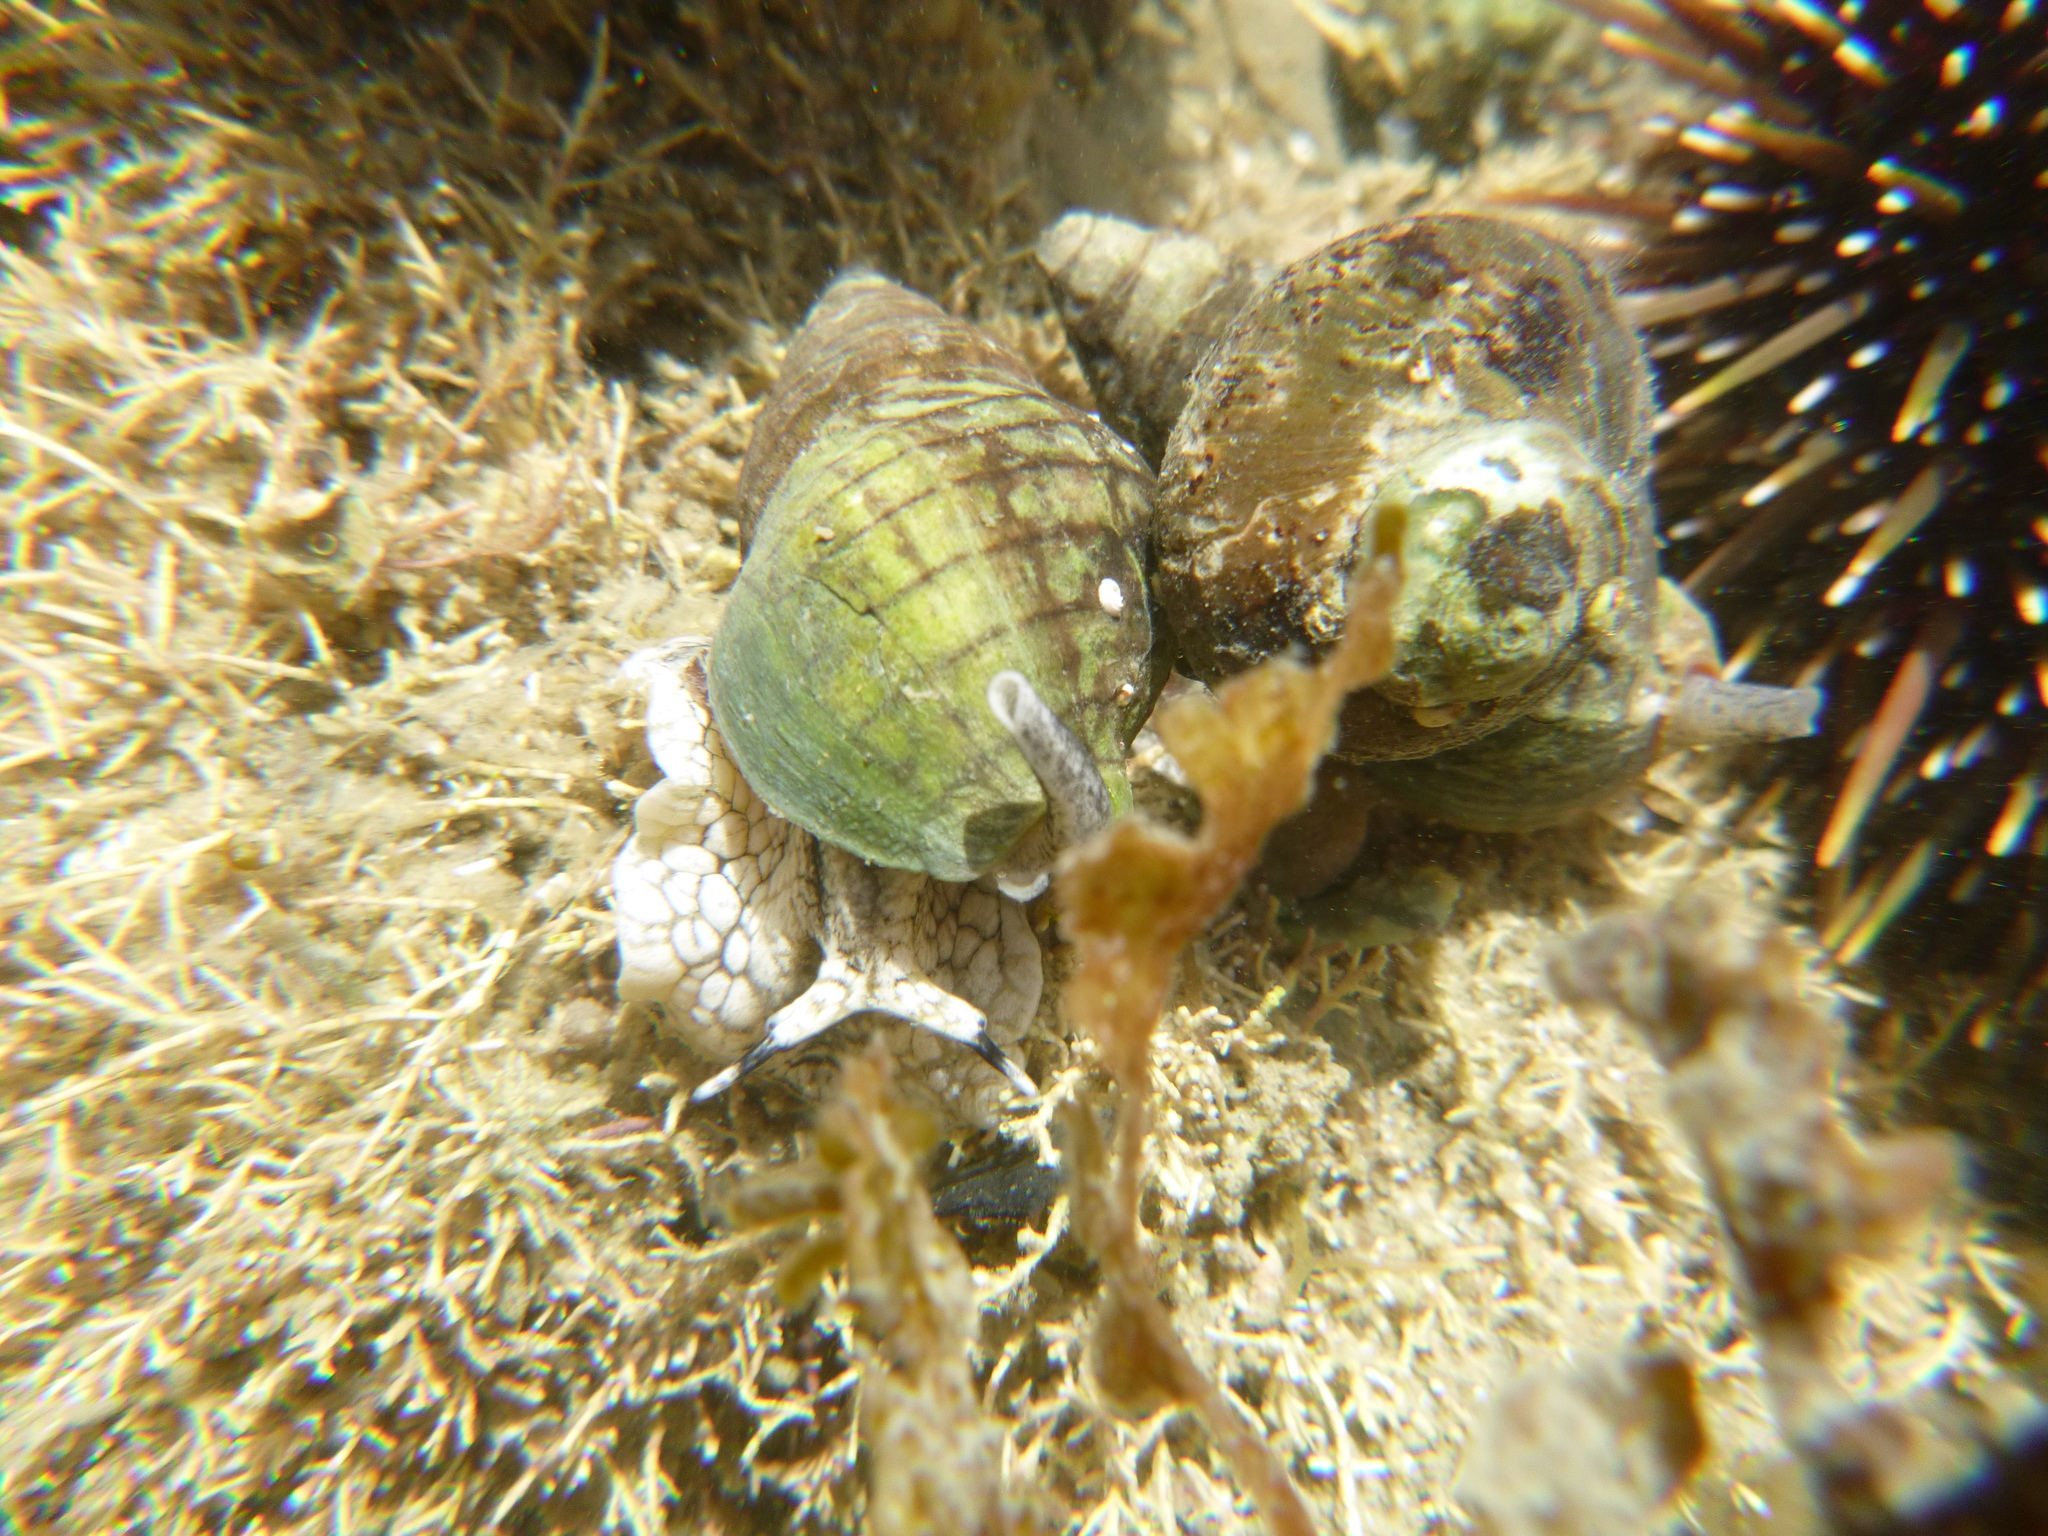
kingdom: Animalia
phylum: Mollusca
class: Gastropoda
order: Neogastropoda
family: Cominellidae
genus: Cominella
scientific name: Cominella virgata
